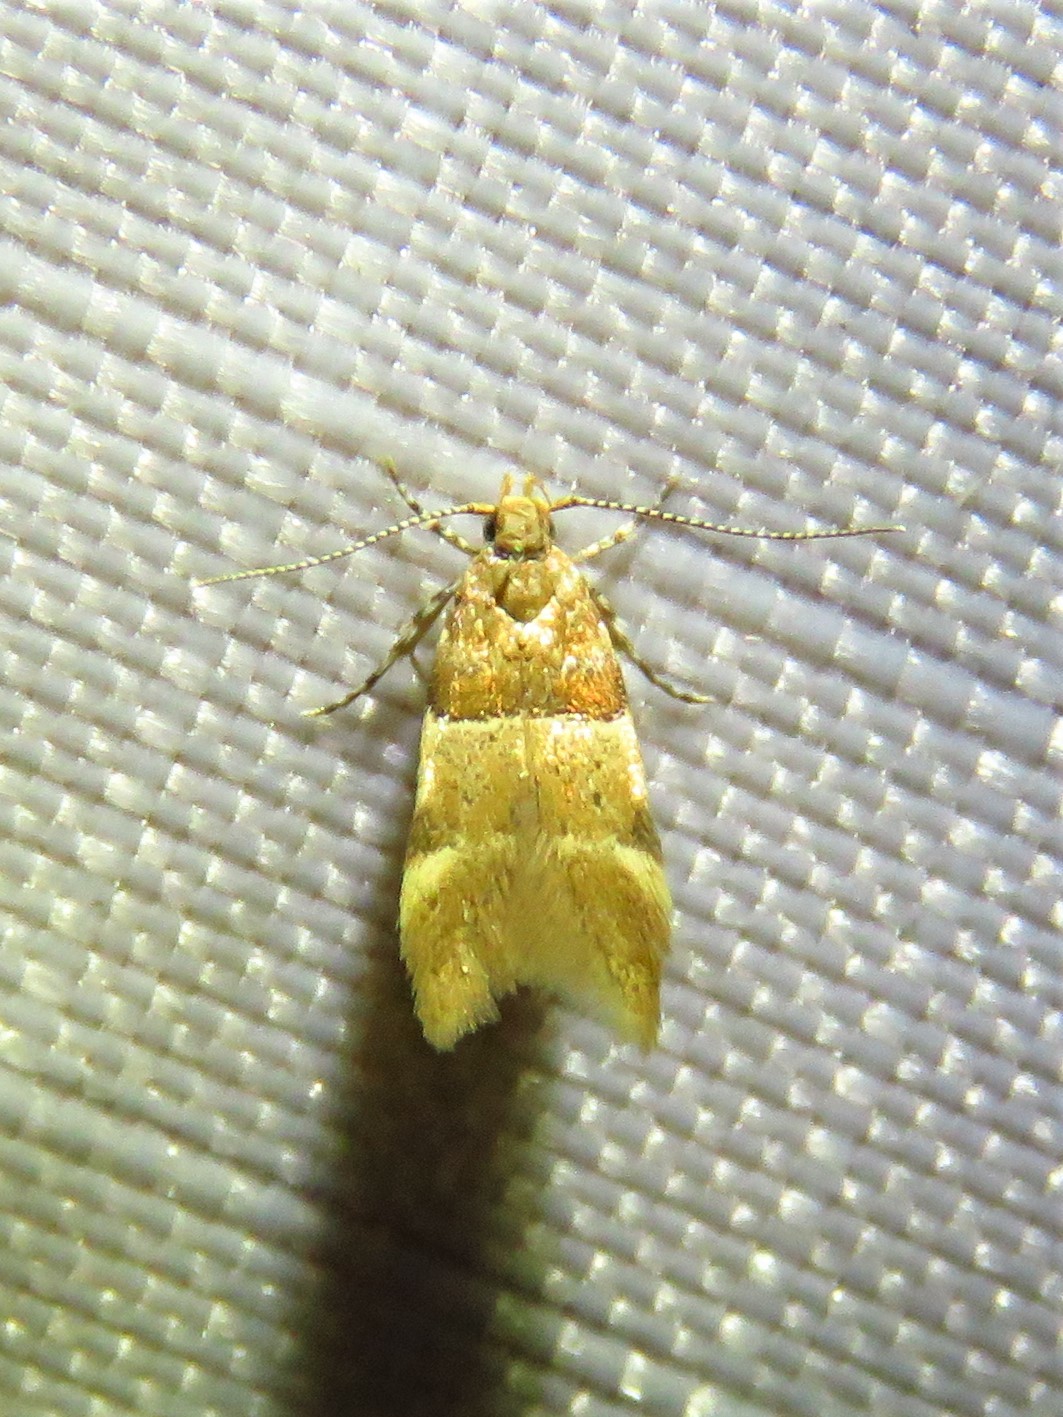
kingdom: Animalia
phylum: Arthropoda
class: Insecta
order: Lepidoptera
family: Gelechiidae
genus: Theisoa
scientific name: Theisoa constrictella
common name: Constricted twirler
